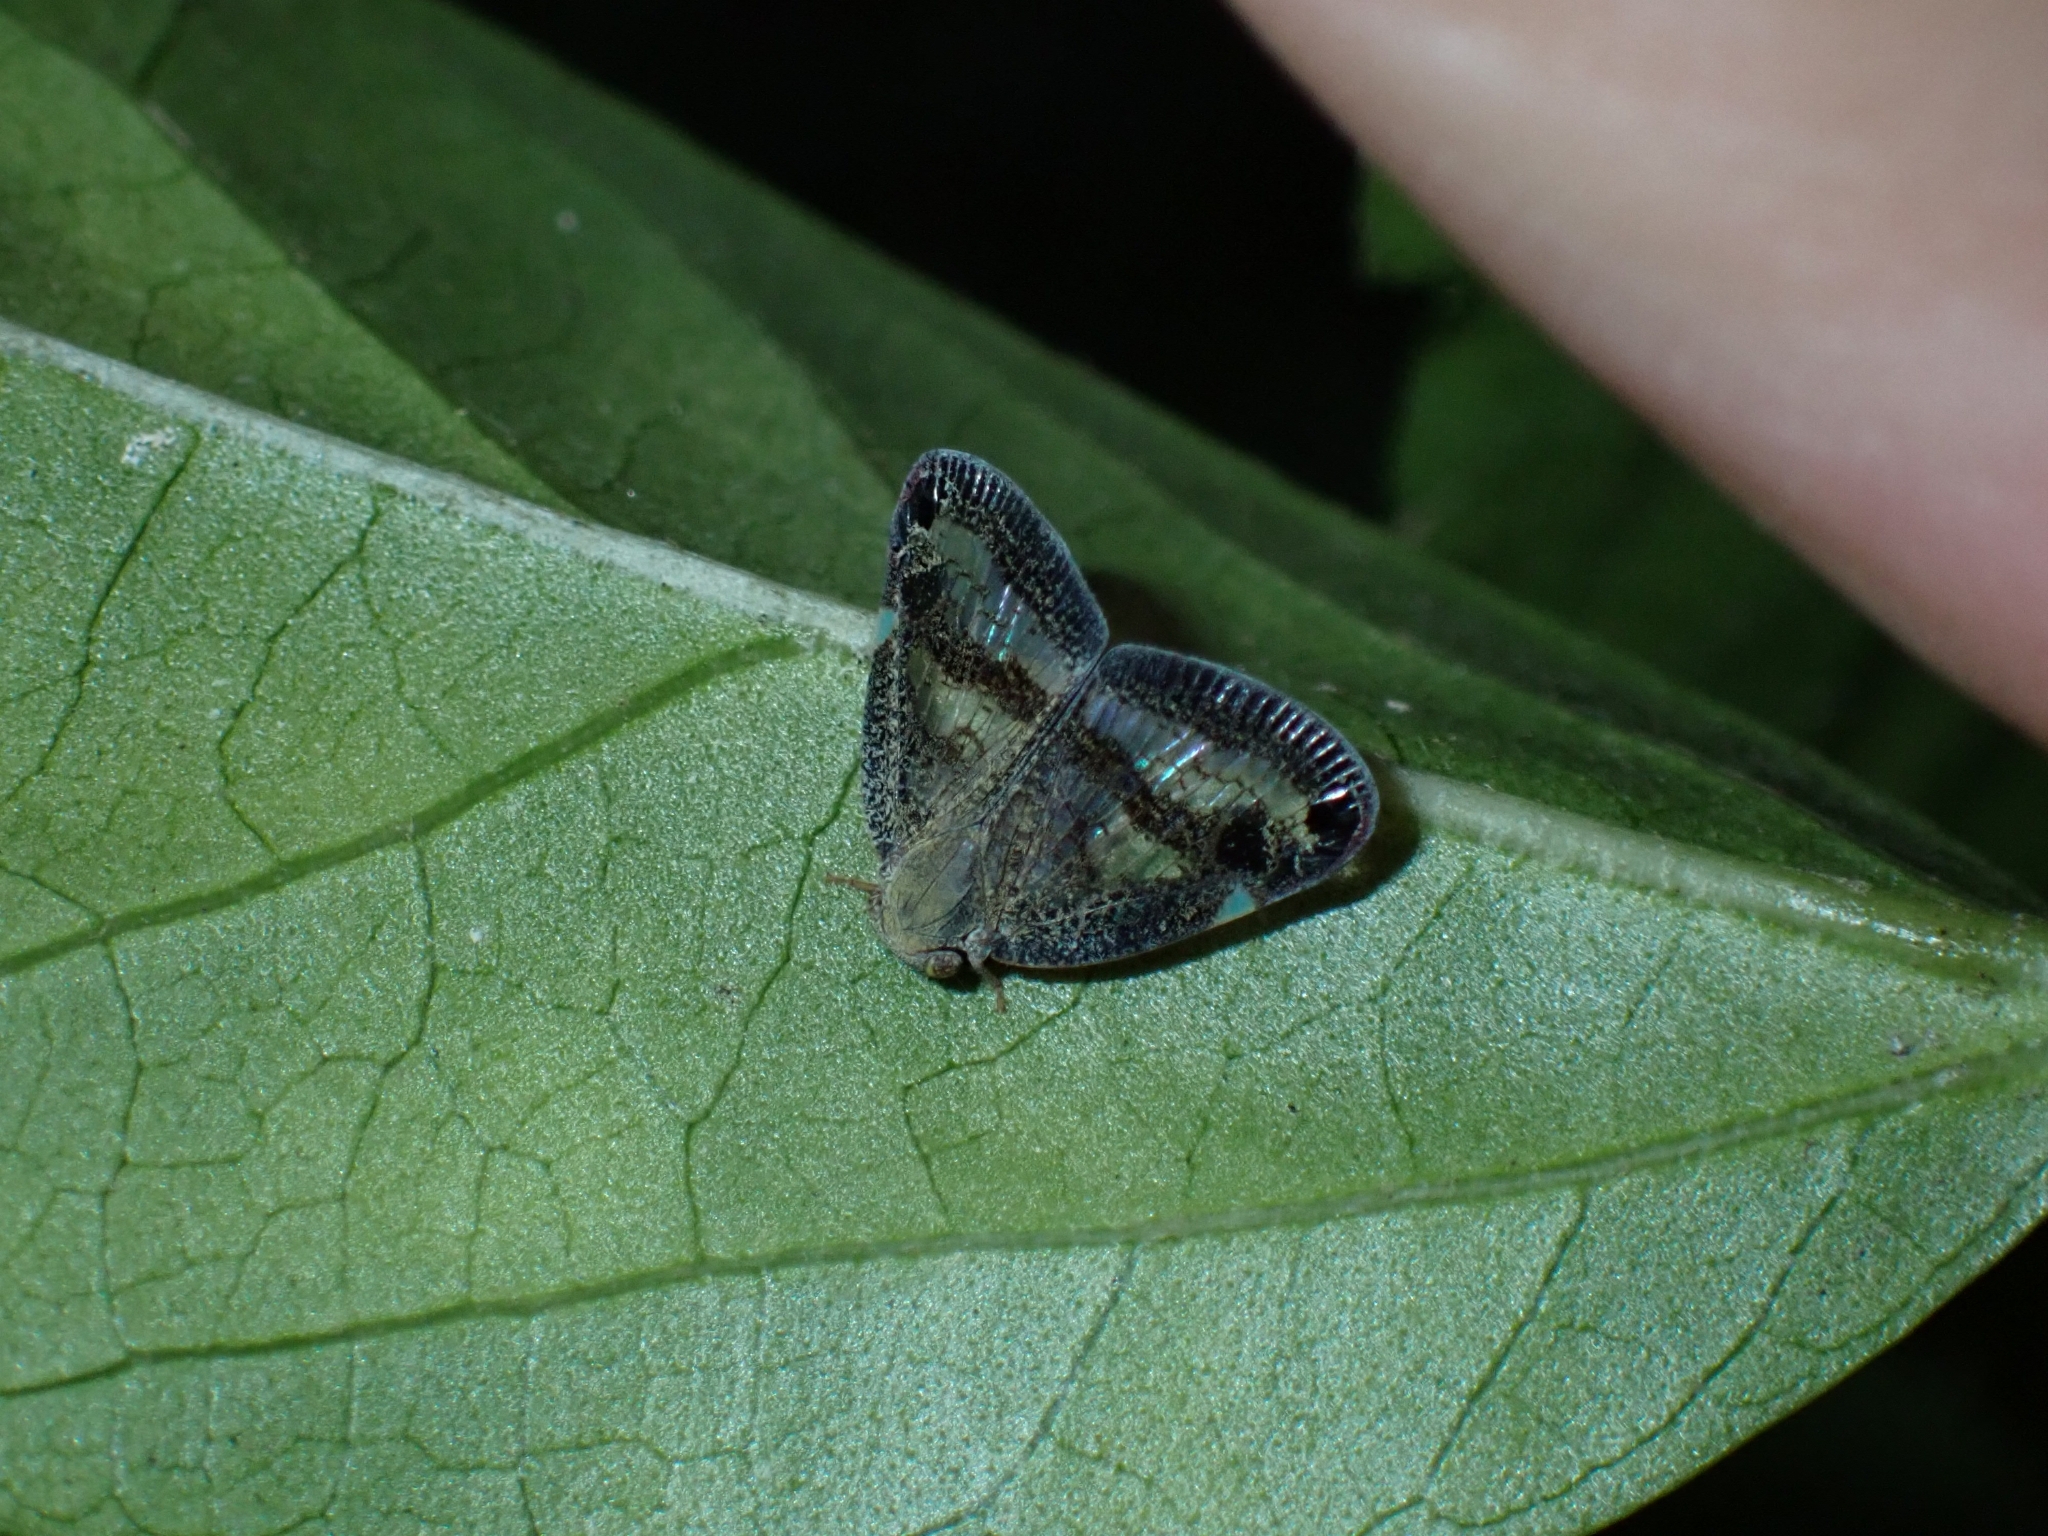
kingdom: Animalia
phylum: Arthropoda
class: Insecta
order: Hemiptera
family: Ricaniidae
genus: Parapiromis
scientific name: Parapiromis translucida
